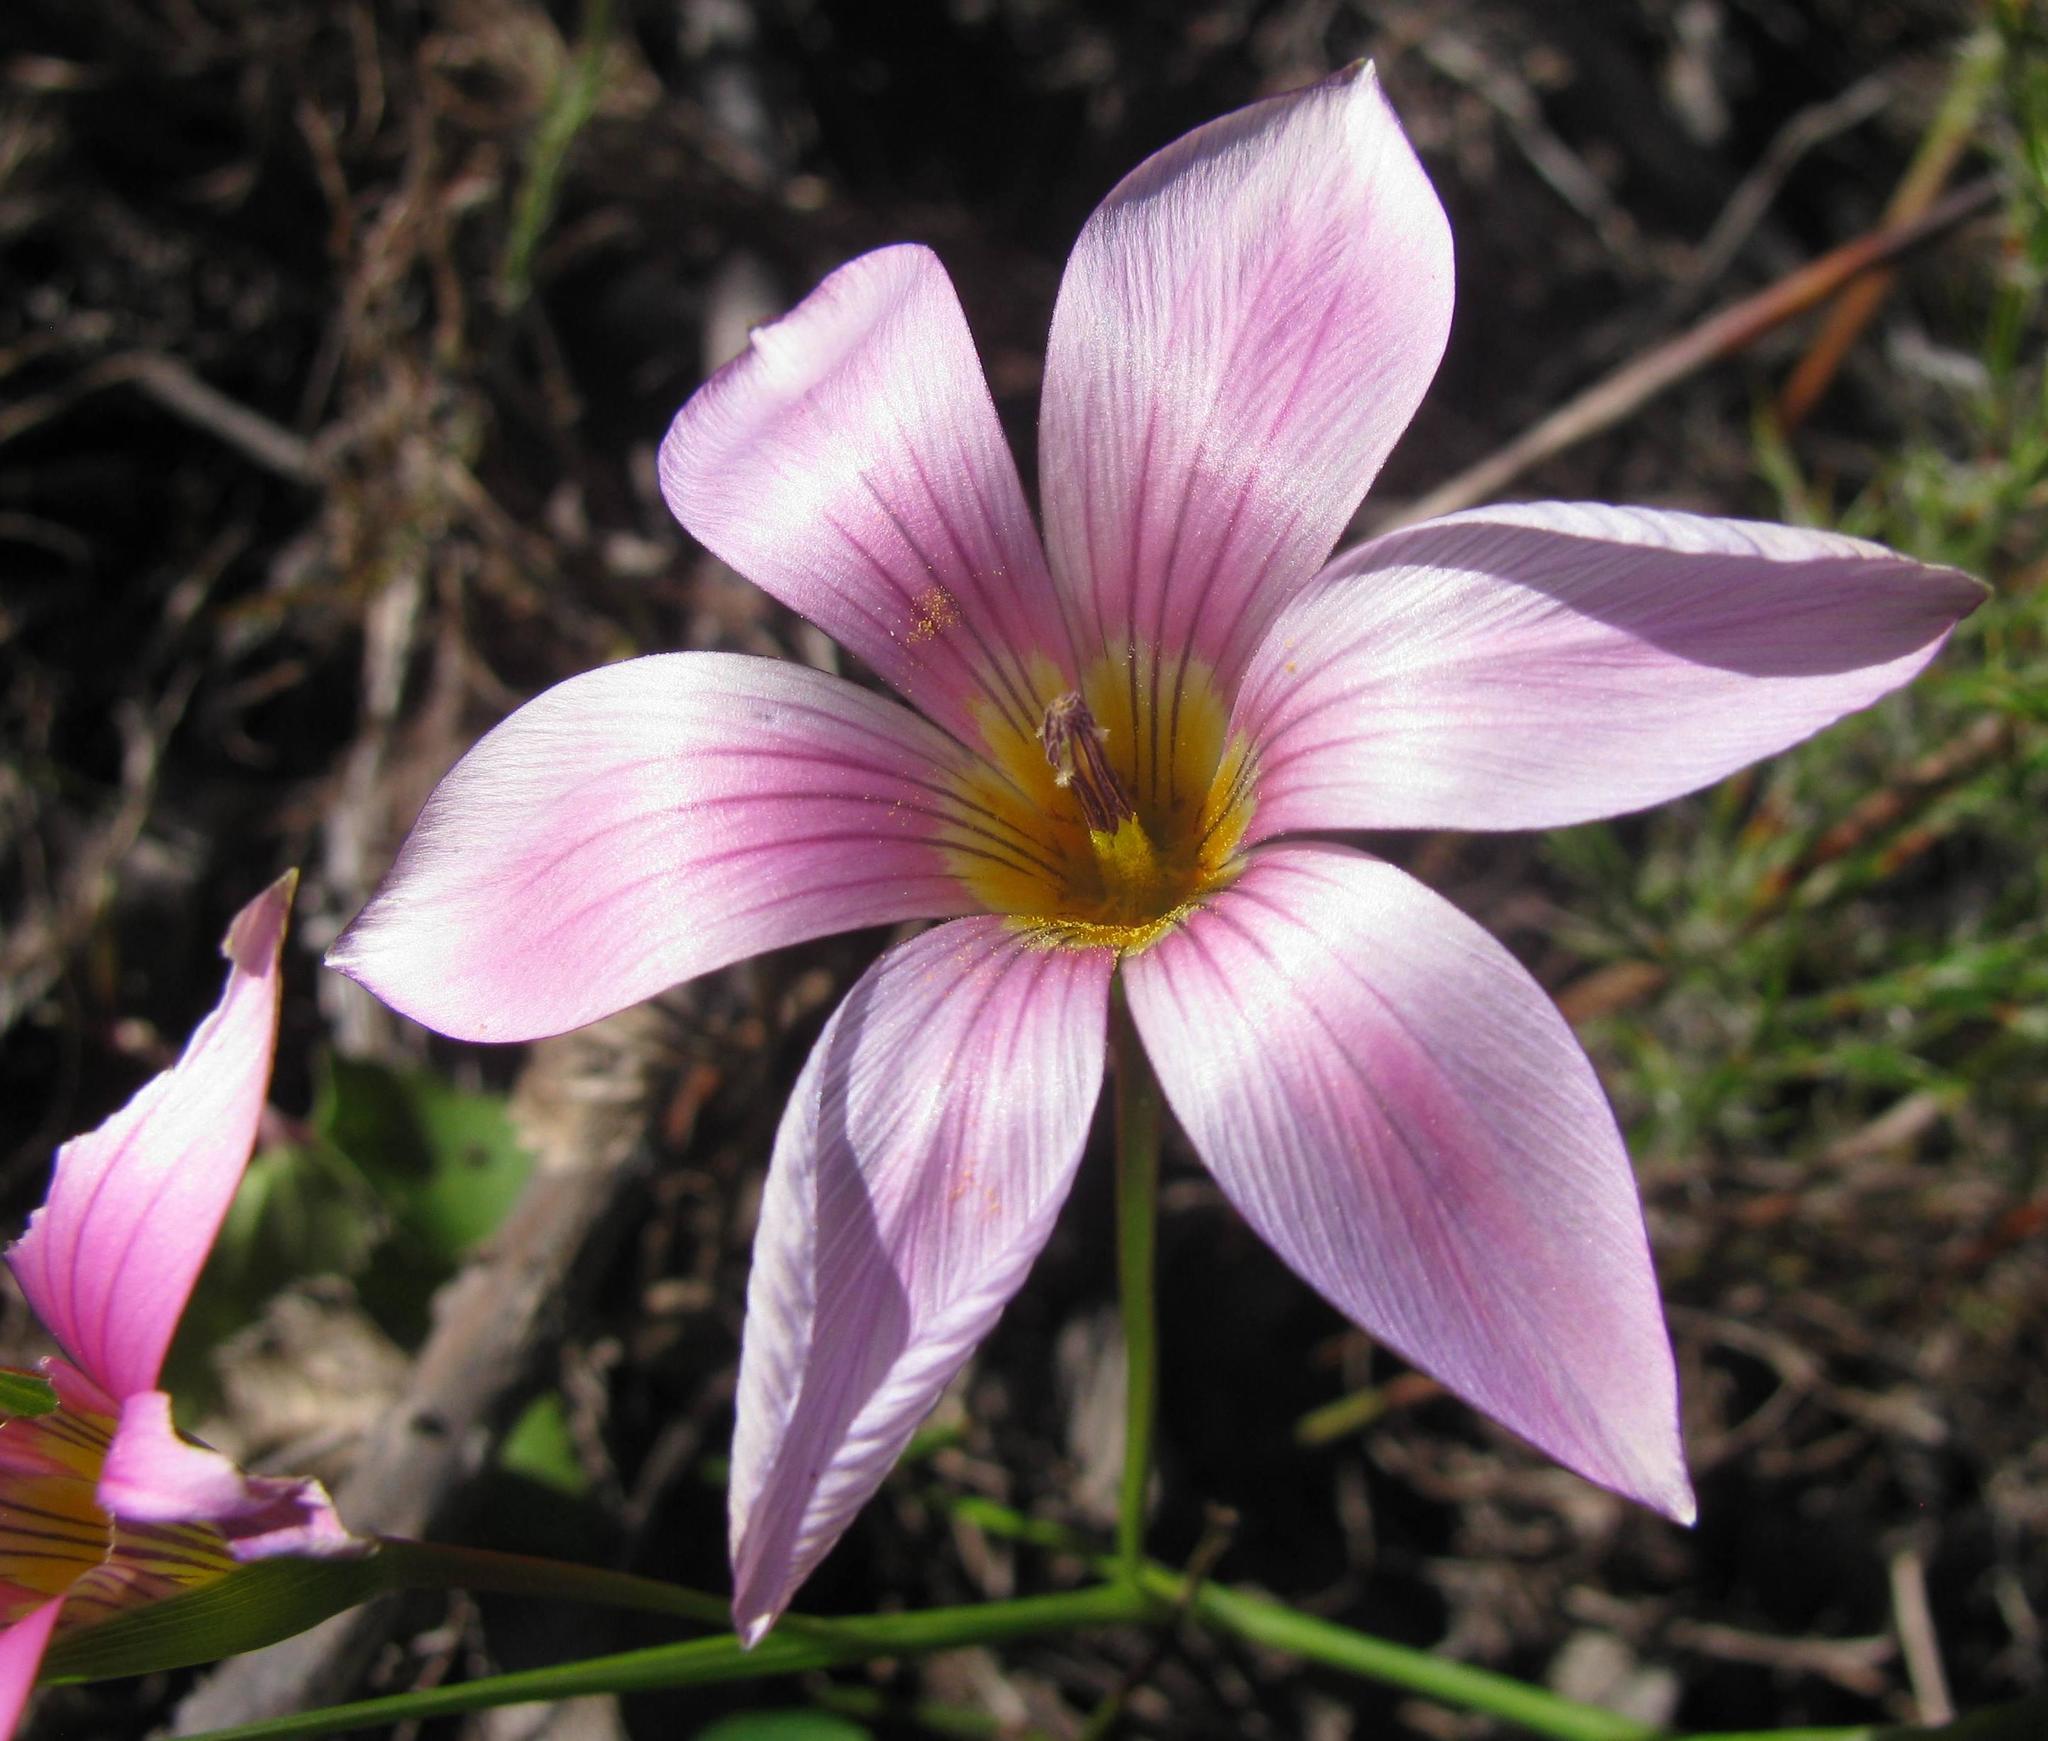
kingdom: Plantae
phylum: Tracheophyta
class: Liliopsida
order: Asparagales
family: Iridaceae
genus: Romulea
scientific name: Romulea dichotoma
